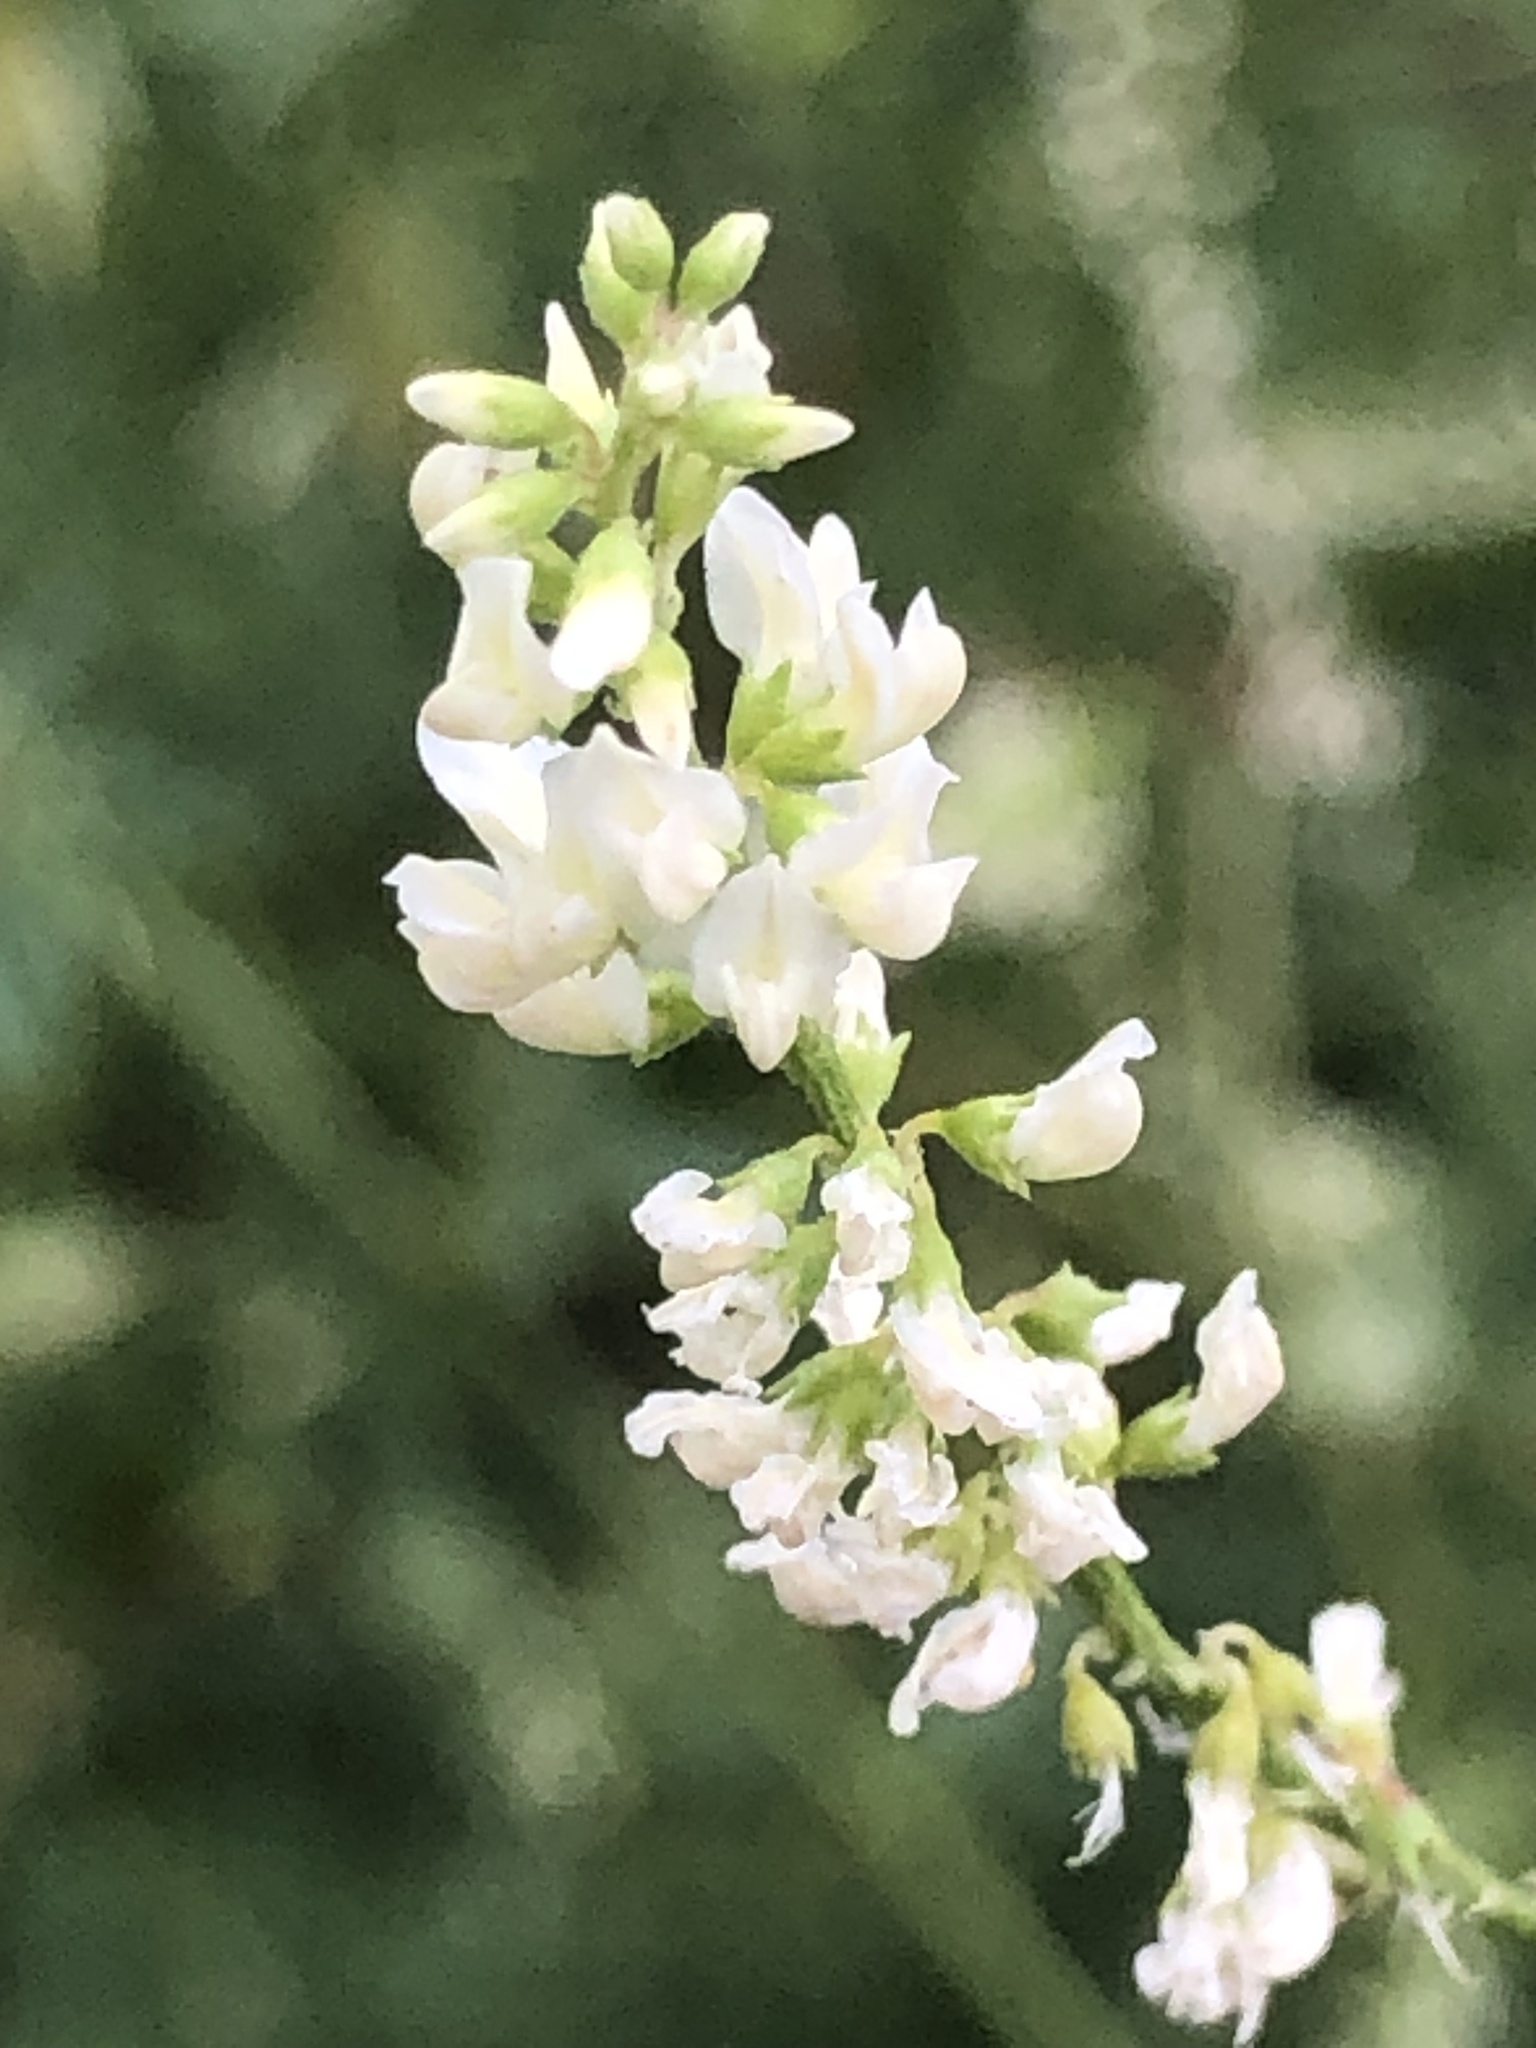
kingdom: Plantae
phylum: Tracheophyta
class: Magnoliopsida
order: Fabales
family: Fabaceae
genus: Melilotus
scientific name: Melilotus albus
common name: White melilot
